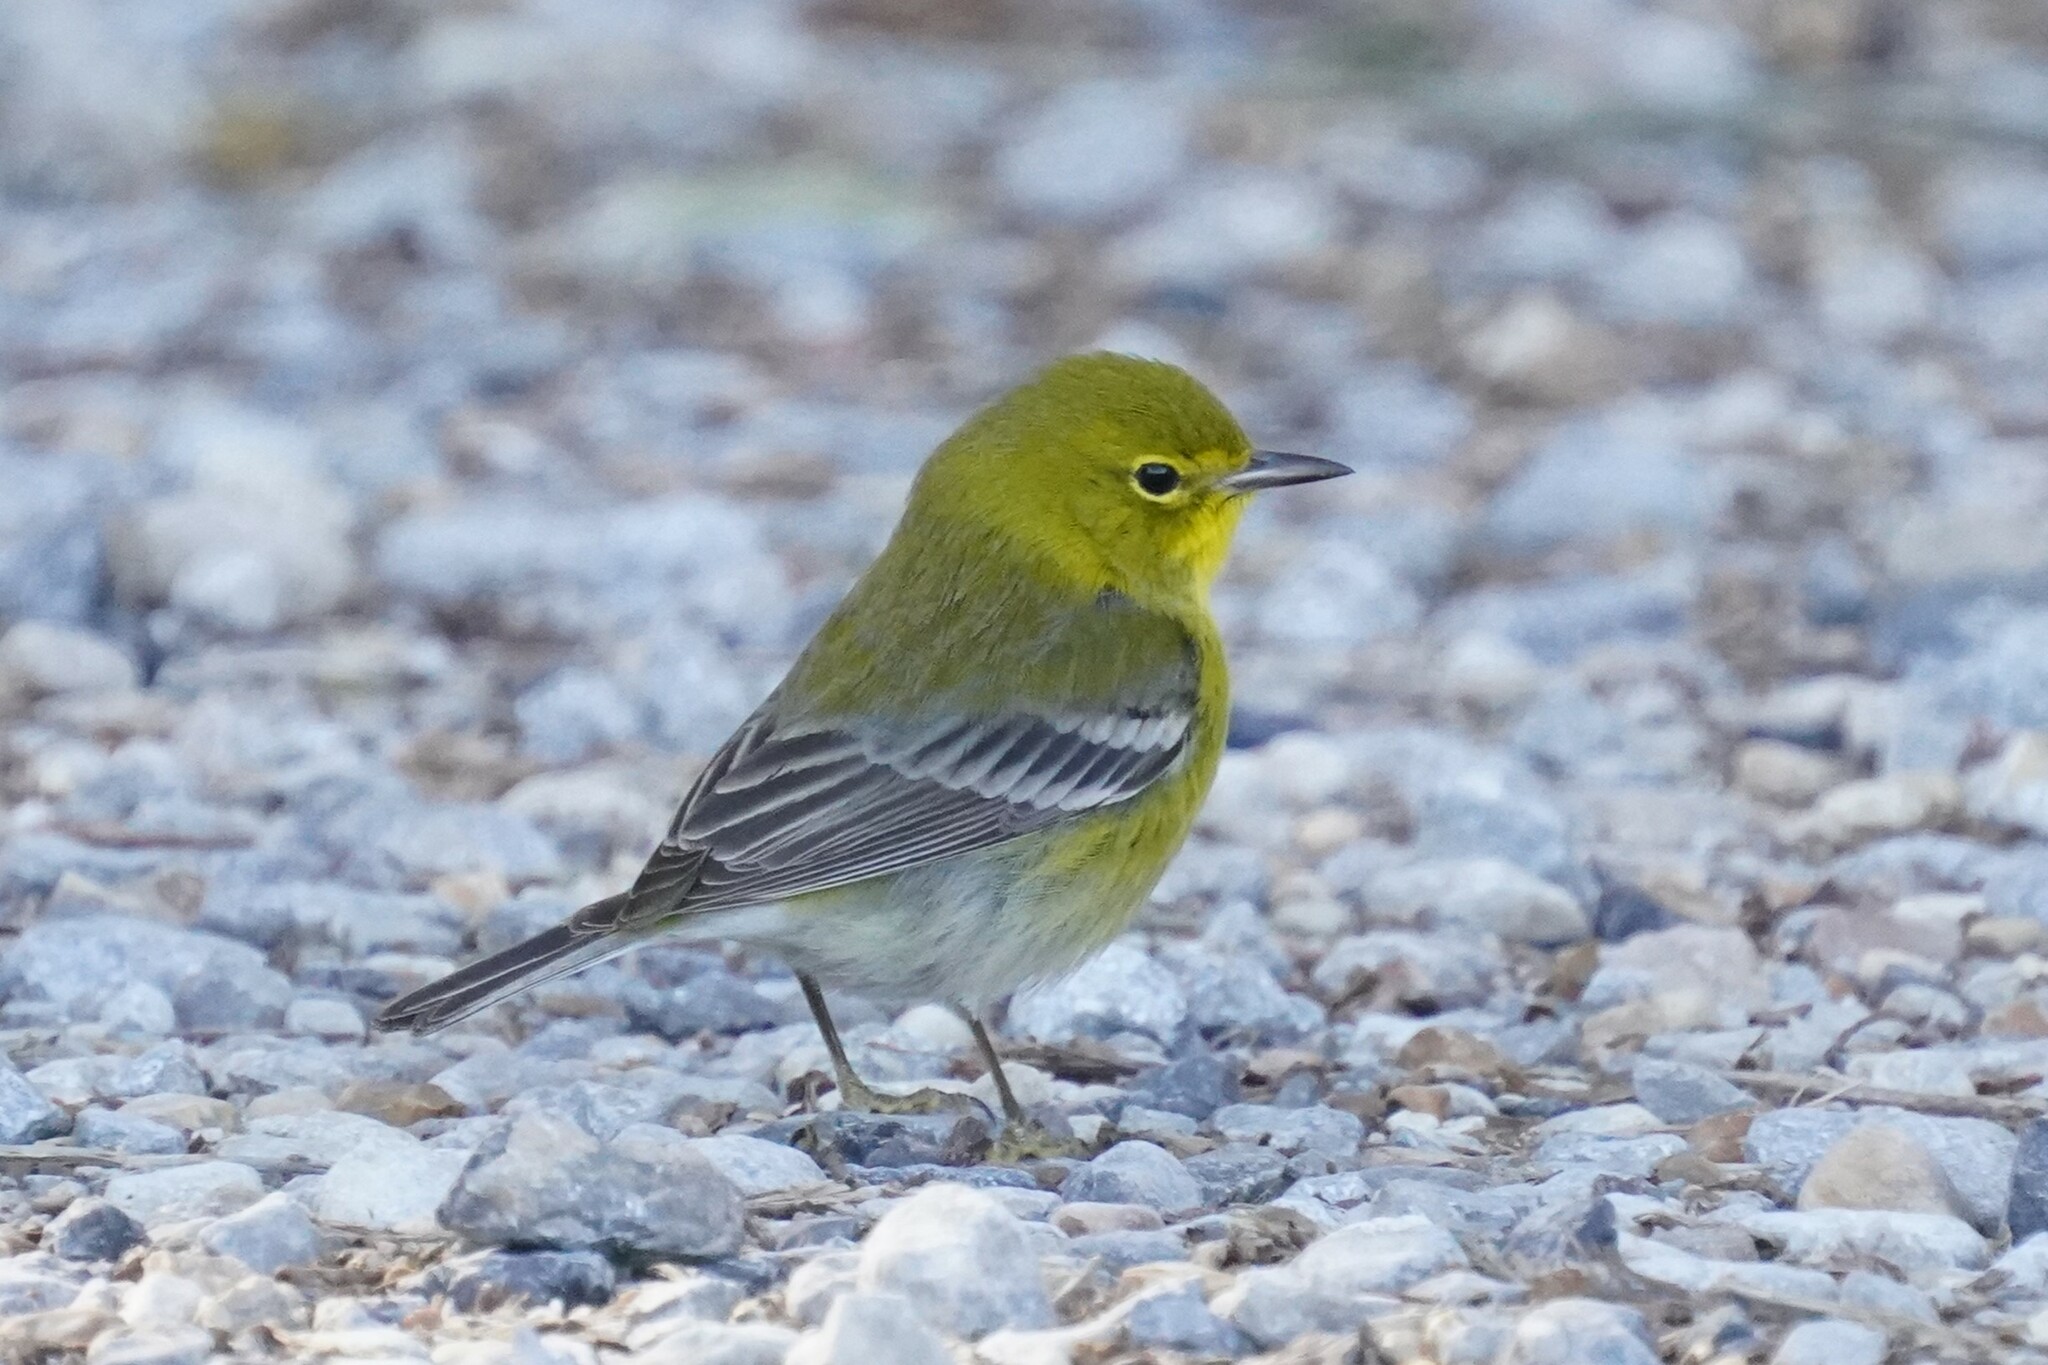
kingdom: Animalia
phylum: Chordata
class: Aves
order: Passeriformes
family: Parulidae
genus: Setophaga
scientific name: Setophaga pinus
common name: Pine warbler
